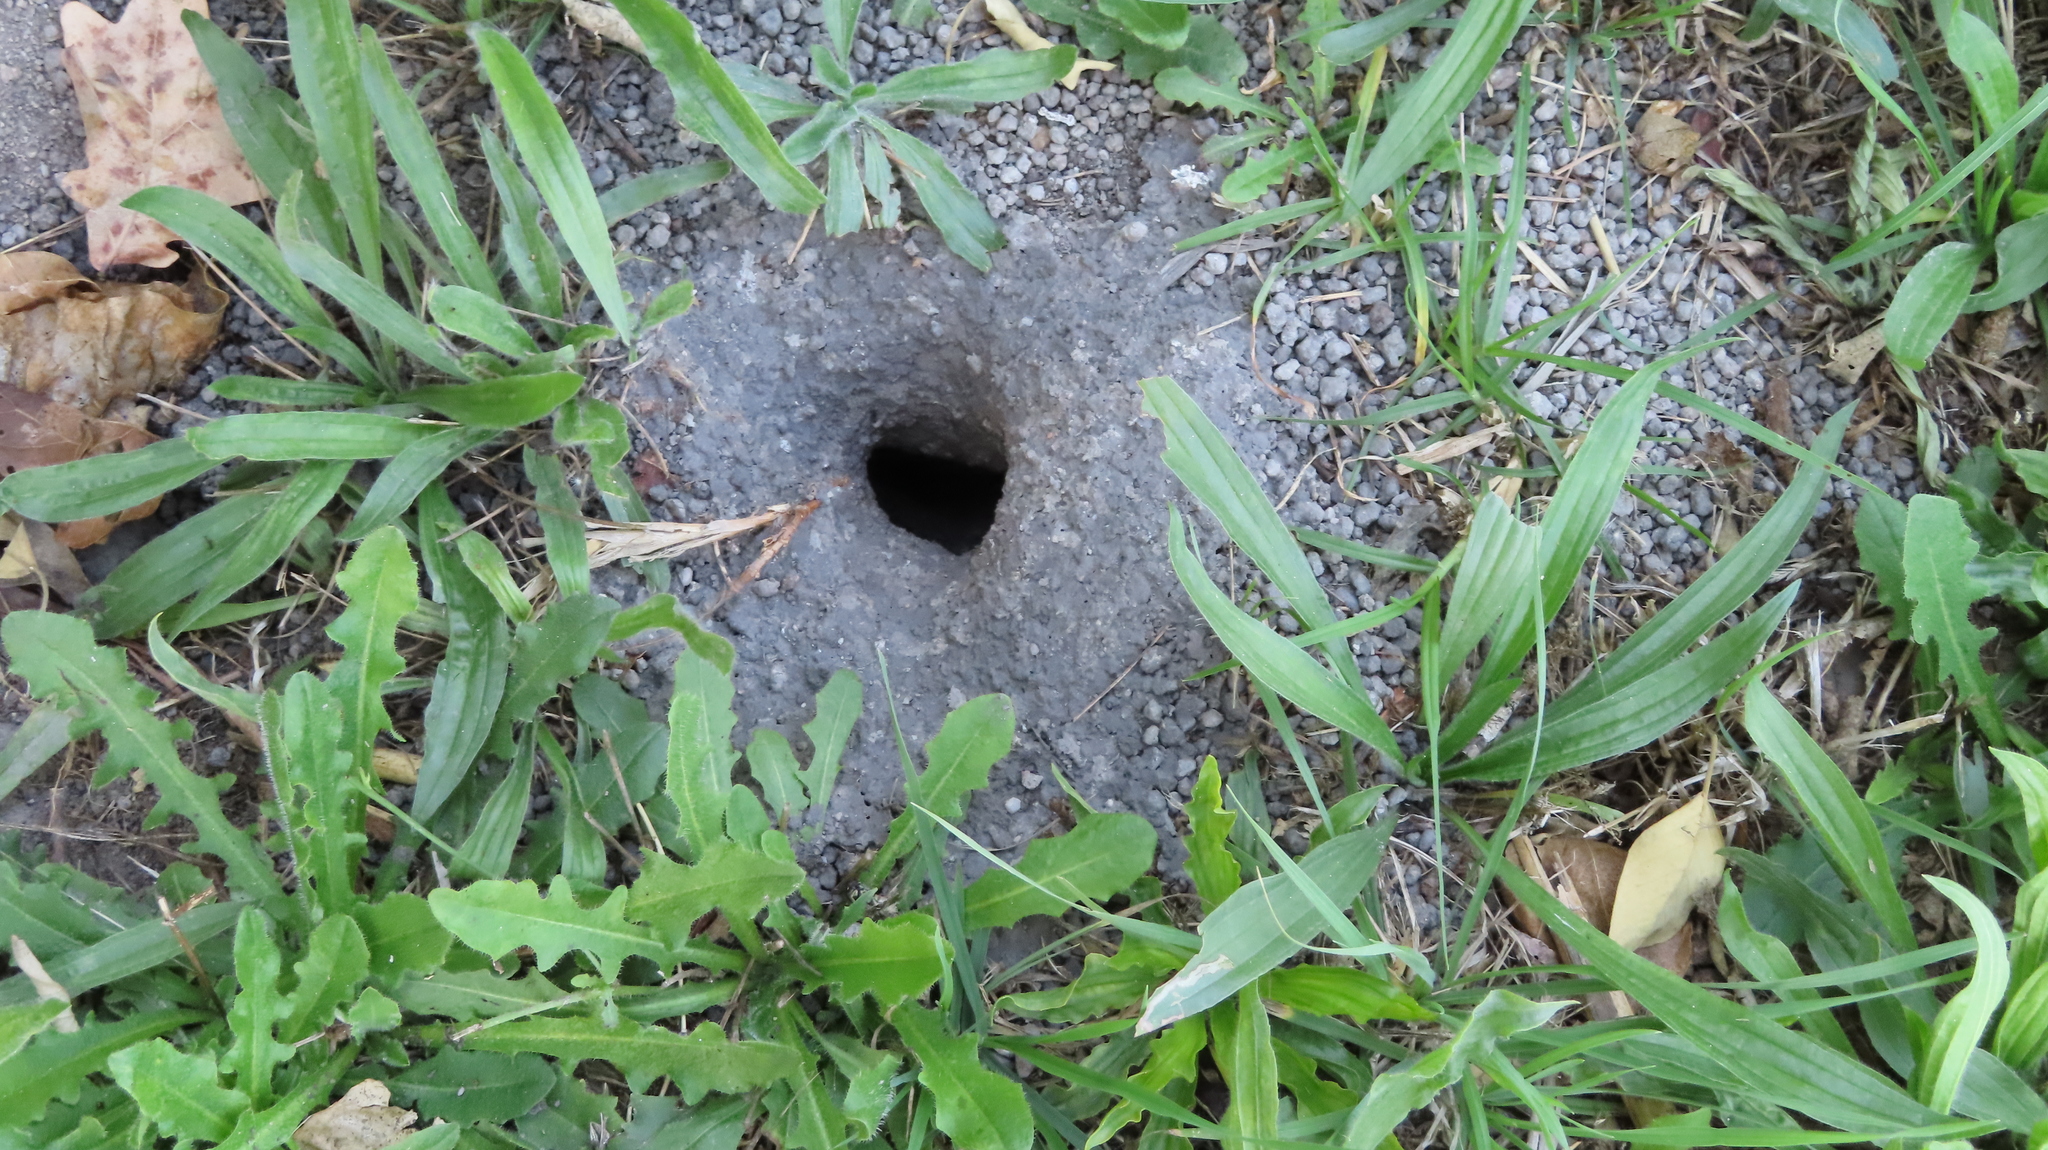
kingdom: Animalia
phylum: Arthropoda
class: Insecta
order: Hymenoptera
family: Vespidae
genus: Vespula
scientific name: Vespula germanica
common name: German wasp
